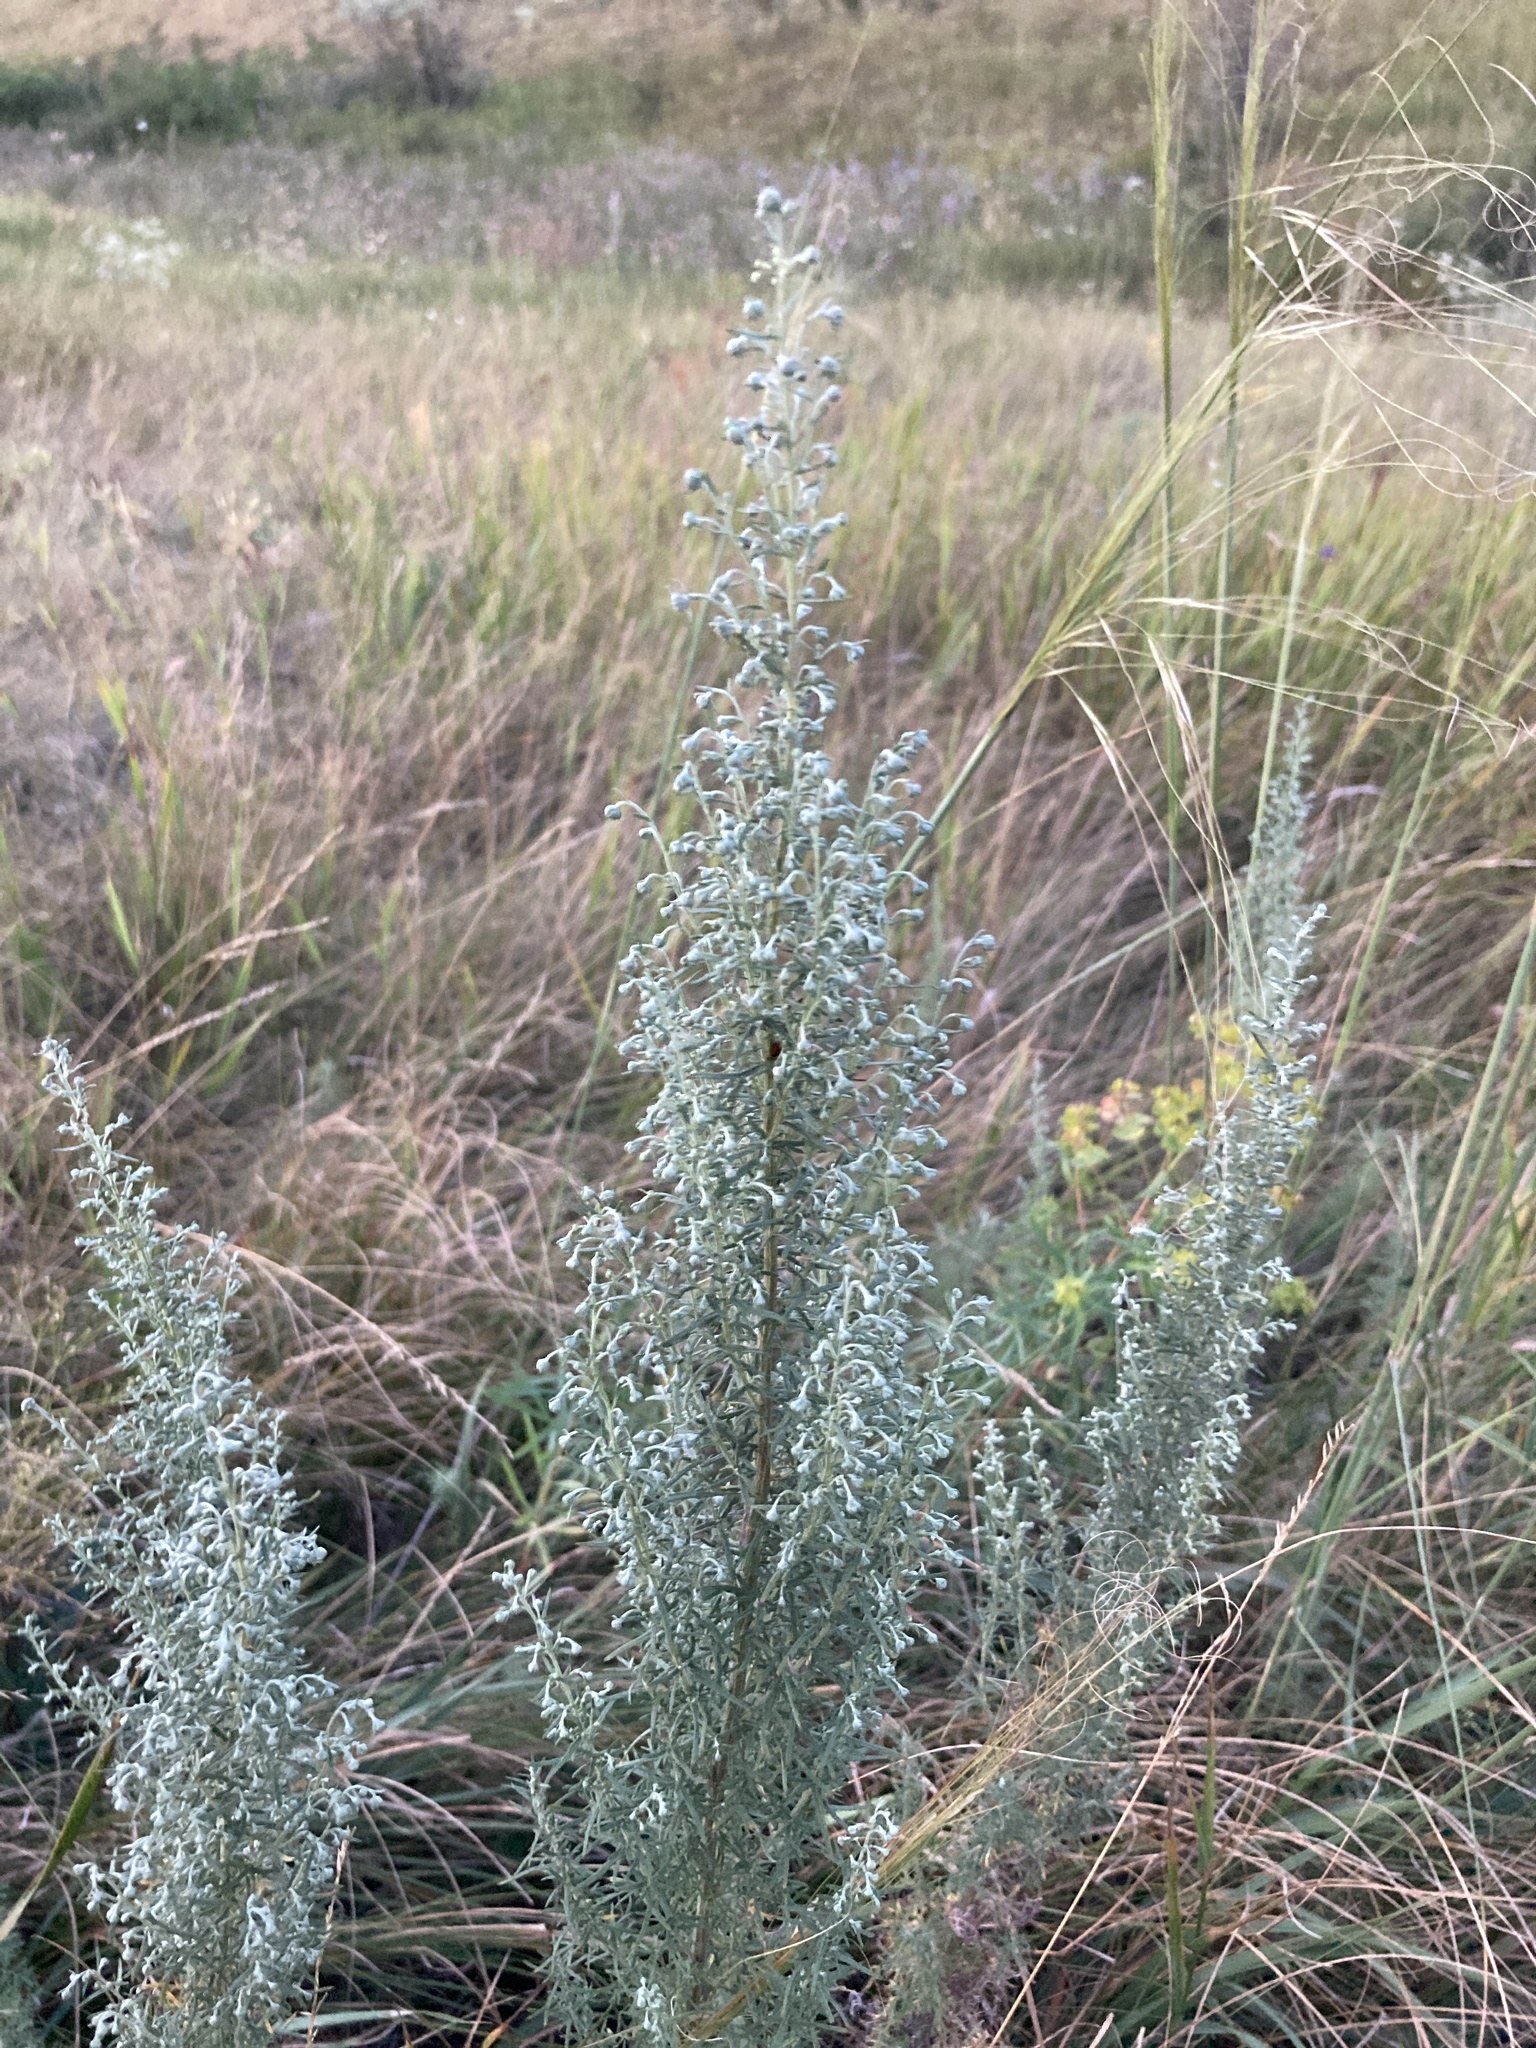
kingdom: Plantae
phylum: Tracheophyta
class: Magnoliopsida
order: Asterales
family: Asteraceae
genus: Artemisia
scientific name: Artemisia austriaca
